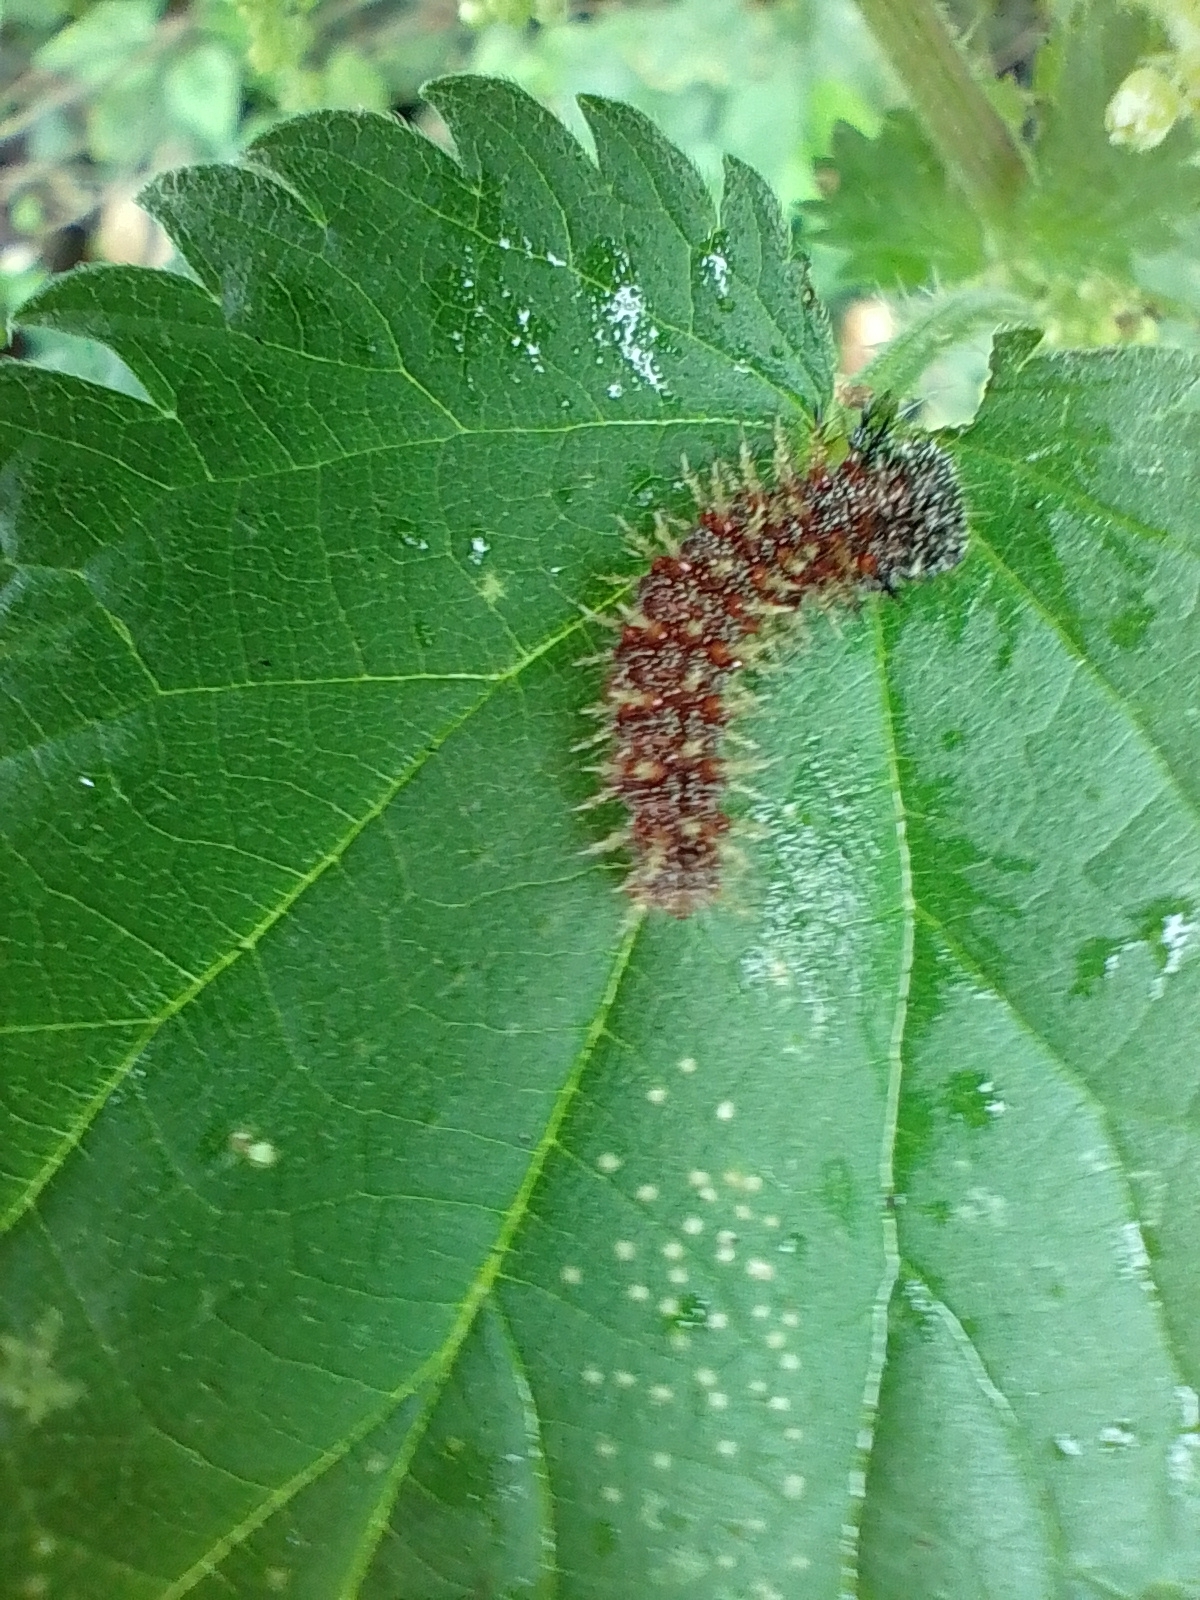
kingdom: Animalia
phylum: Arthropoda
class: Insecta
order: Lepidoptera
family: Nymphalidae
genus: Vanessa
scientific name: Vanessa atalanta
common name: Red admiral
